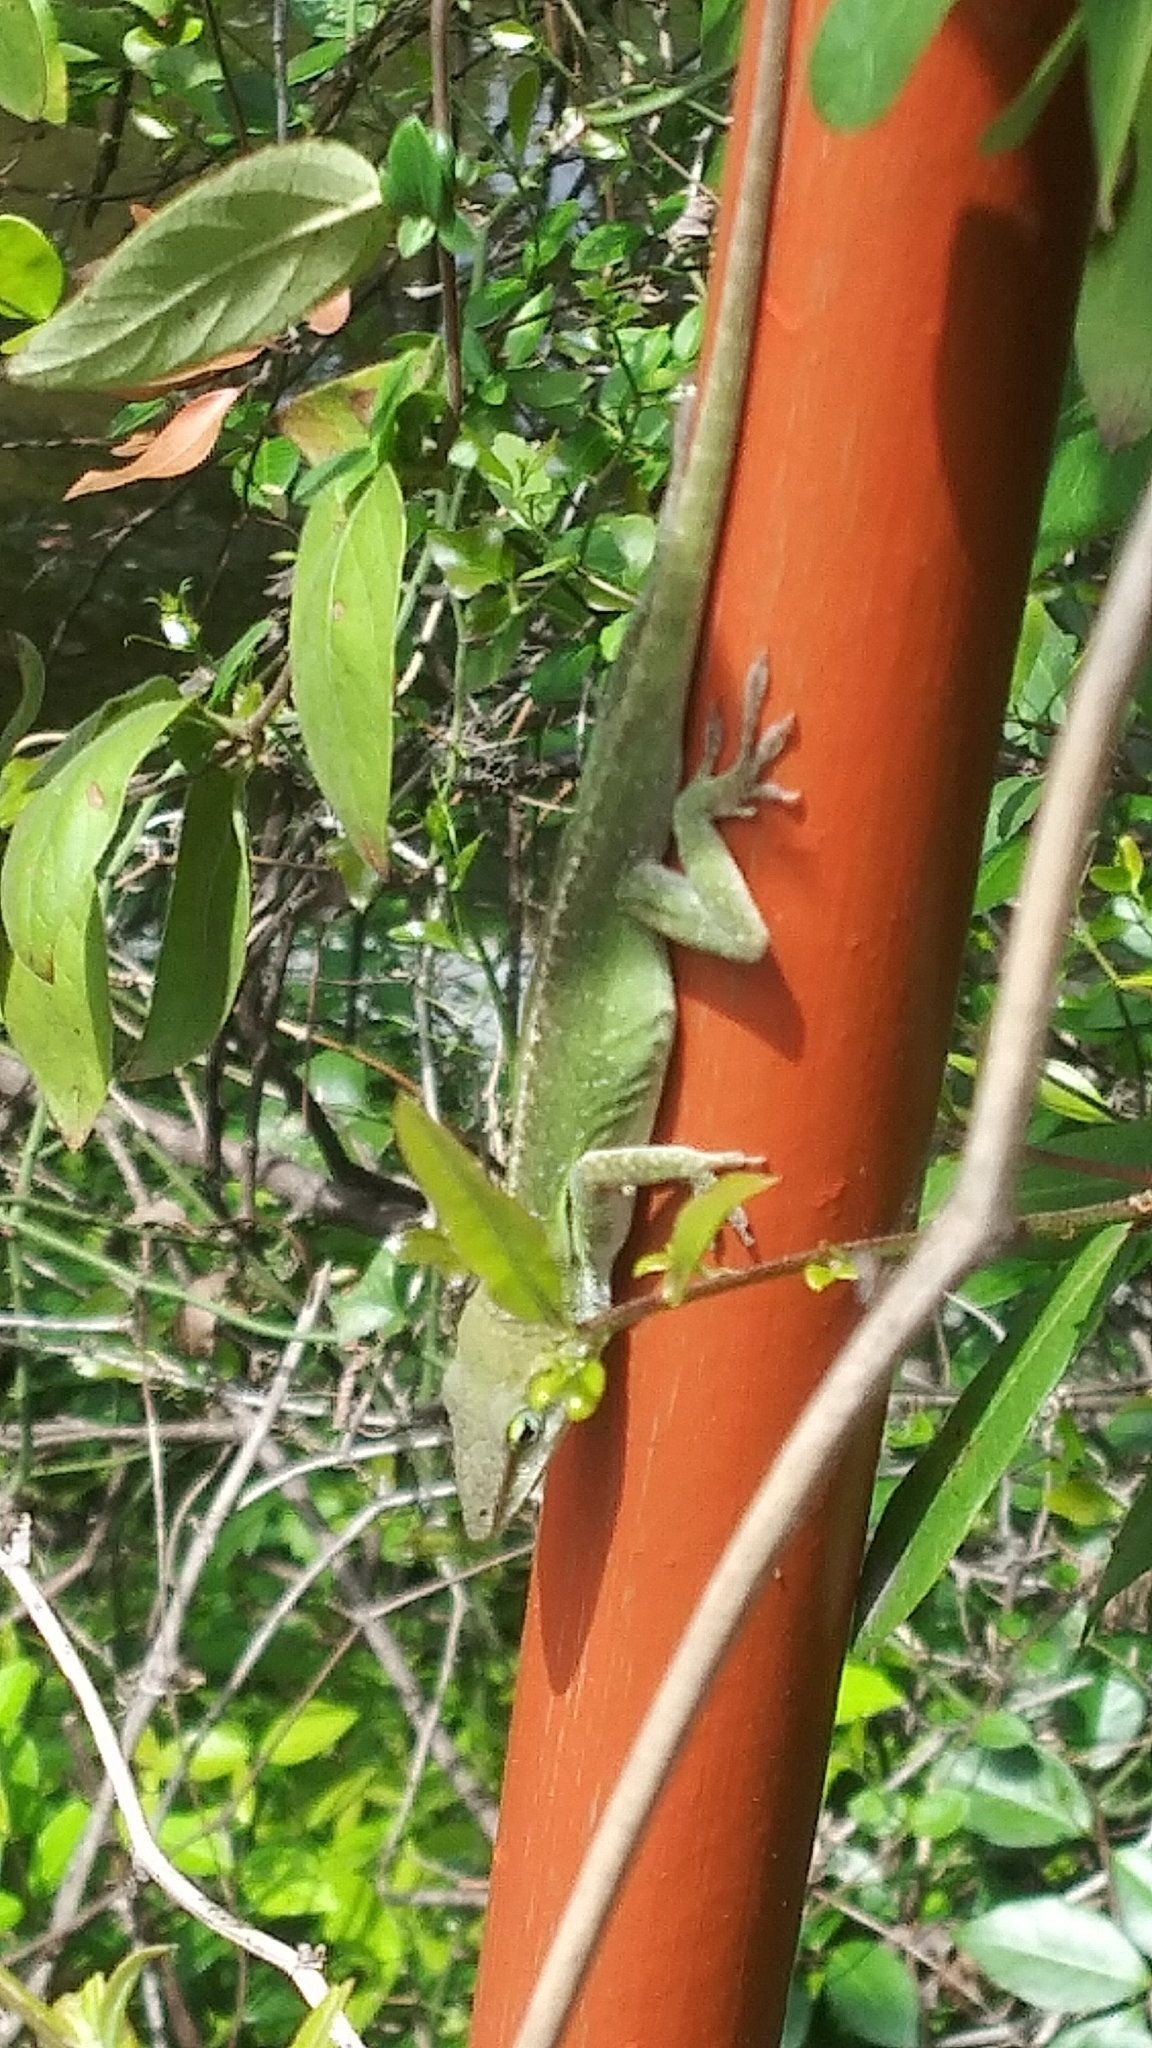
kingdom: Animalia
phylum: Chordata
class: Squamata
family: Dactyloidae
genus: Anolis
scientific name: Anolis carolinensis
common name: Green anole
